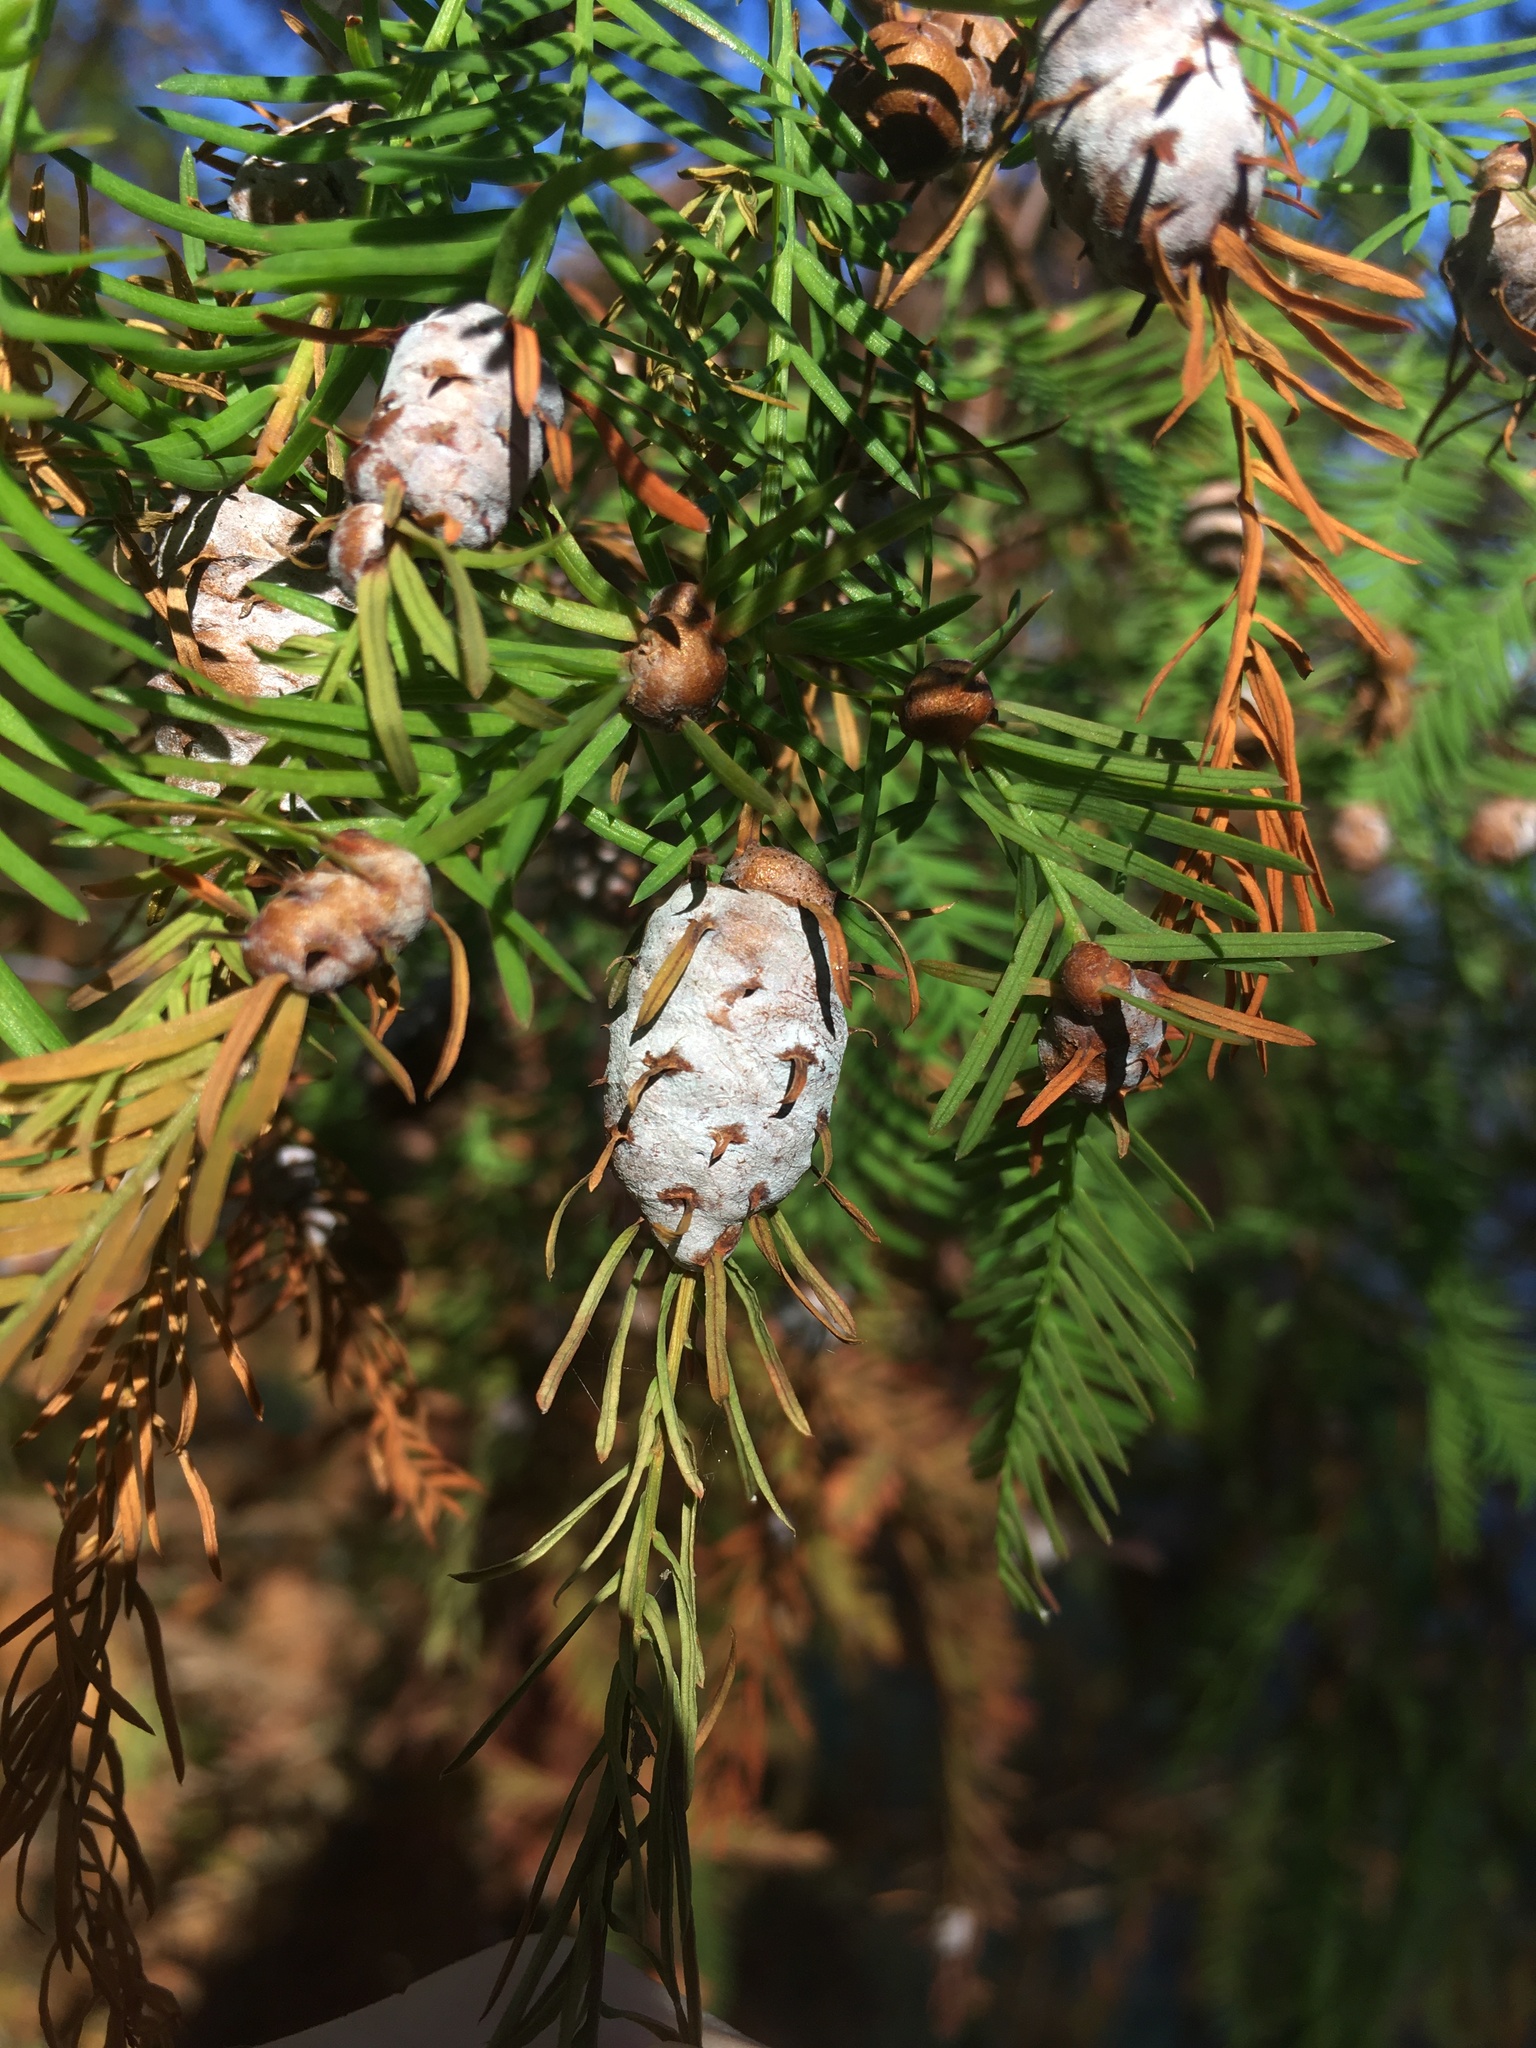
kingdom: Animalia
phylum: Arthropoda
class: Insecta
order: Diptera
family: Cecidomyiidae
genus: Taxodiomyia
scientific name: Taxodiomyia cupressiananassa
